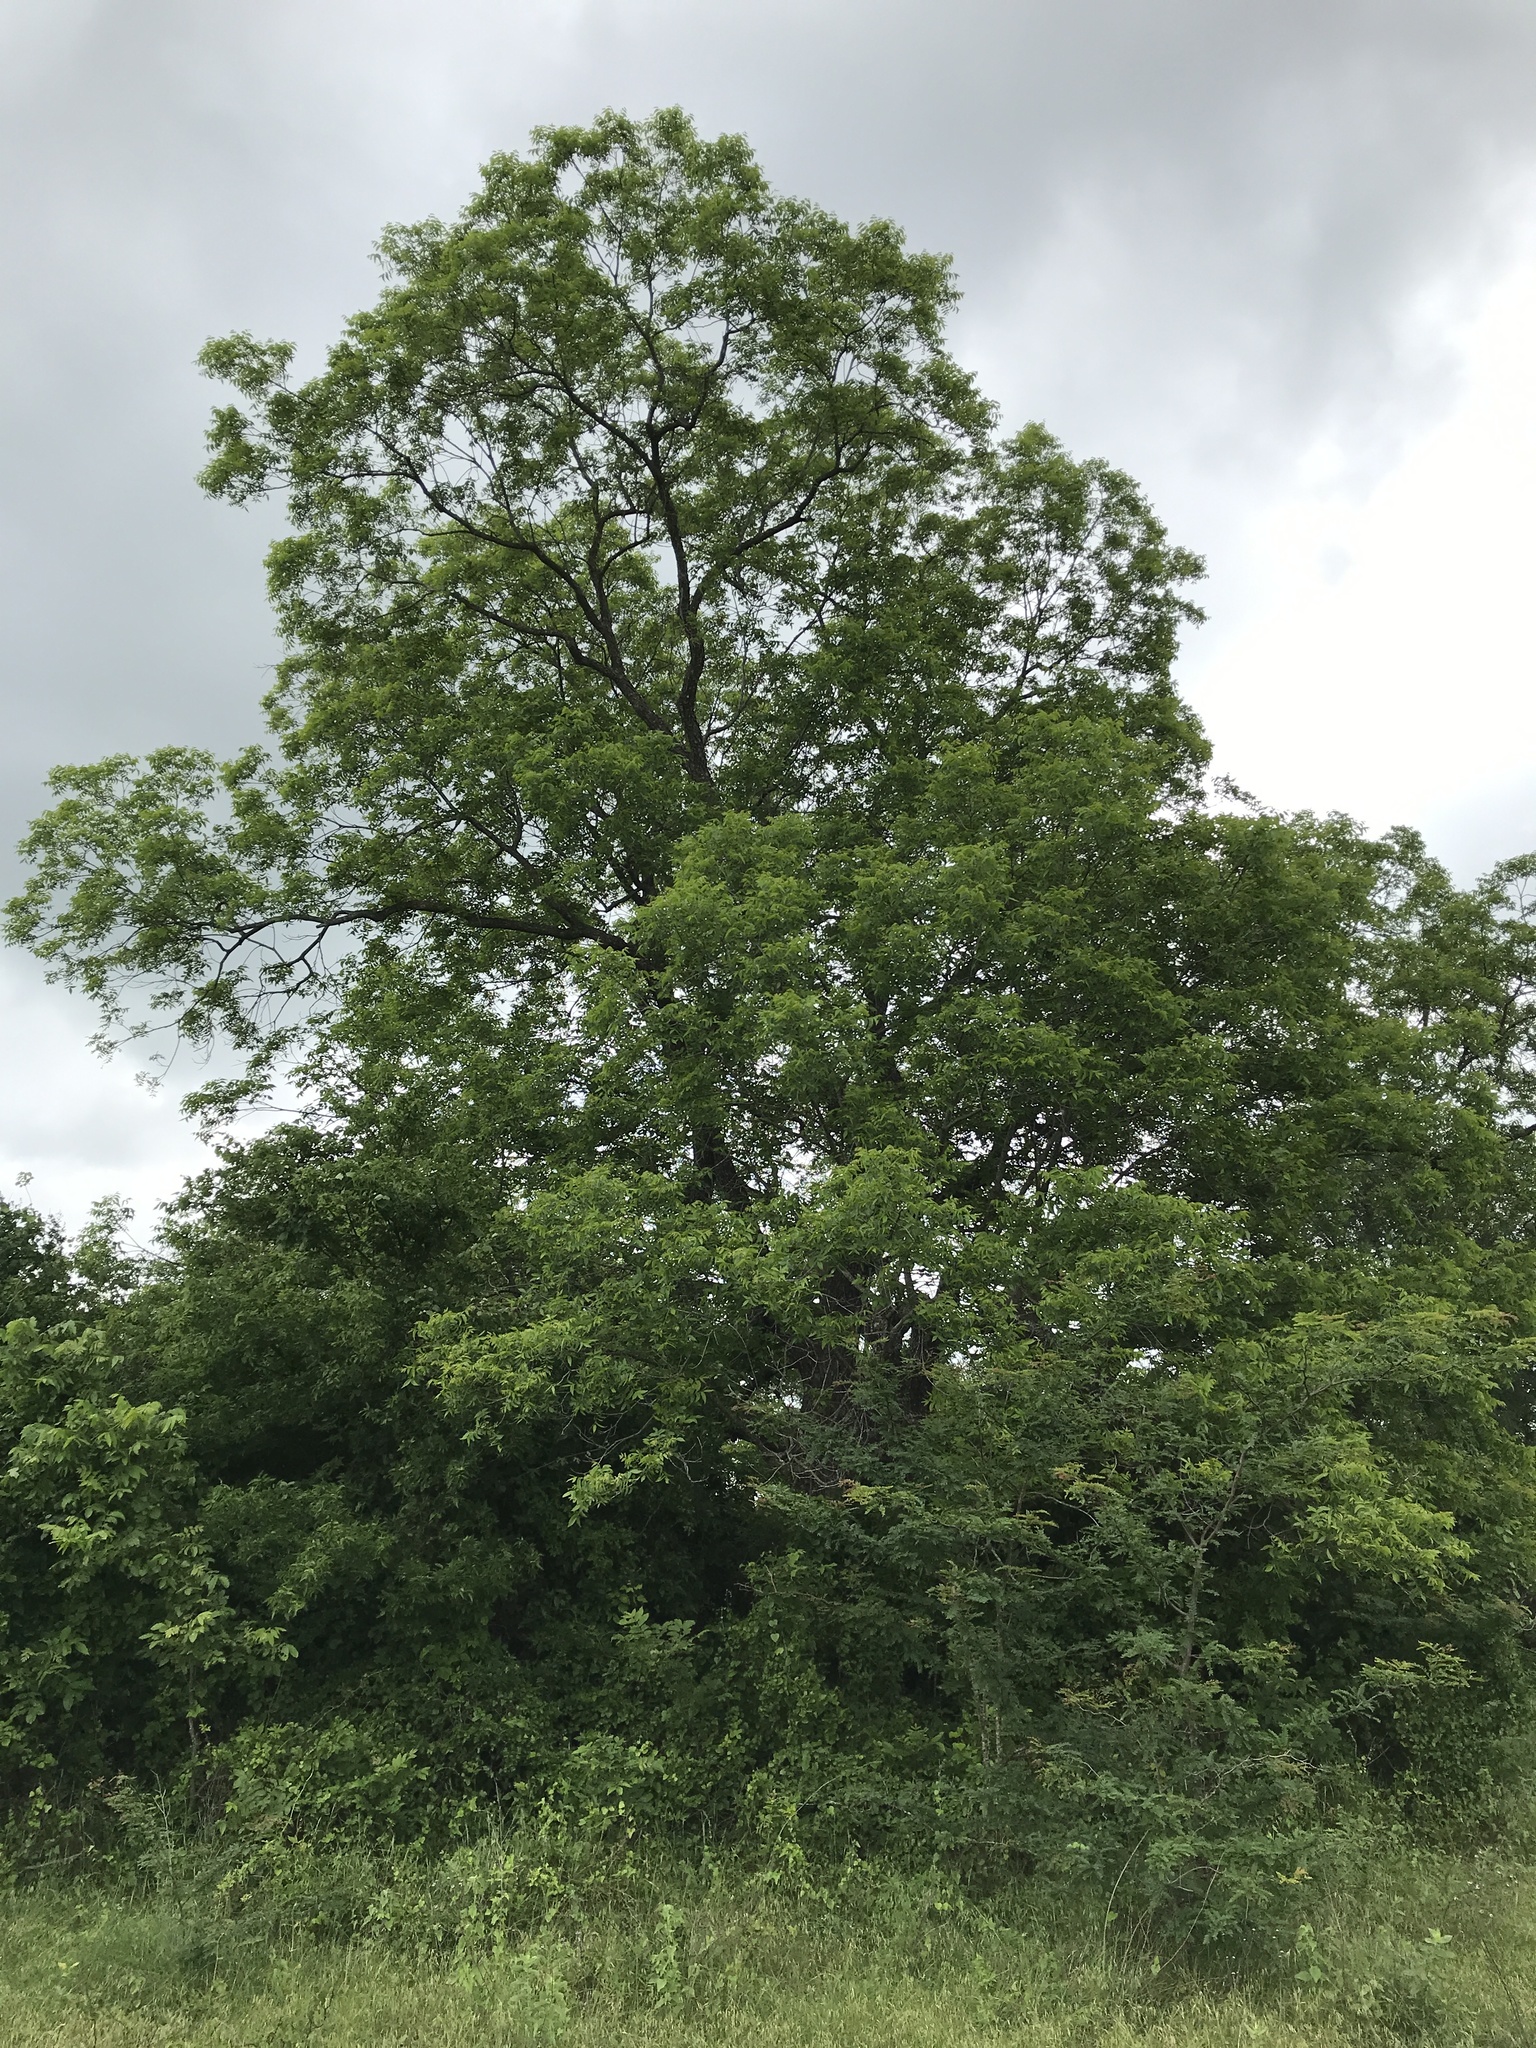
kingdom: Plantae
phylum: Tracheophyta
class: Magnoliopsida
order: Fagales
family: Juglandaceae
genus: Carya
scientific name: Carya illinoinensis
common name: Pecan
